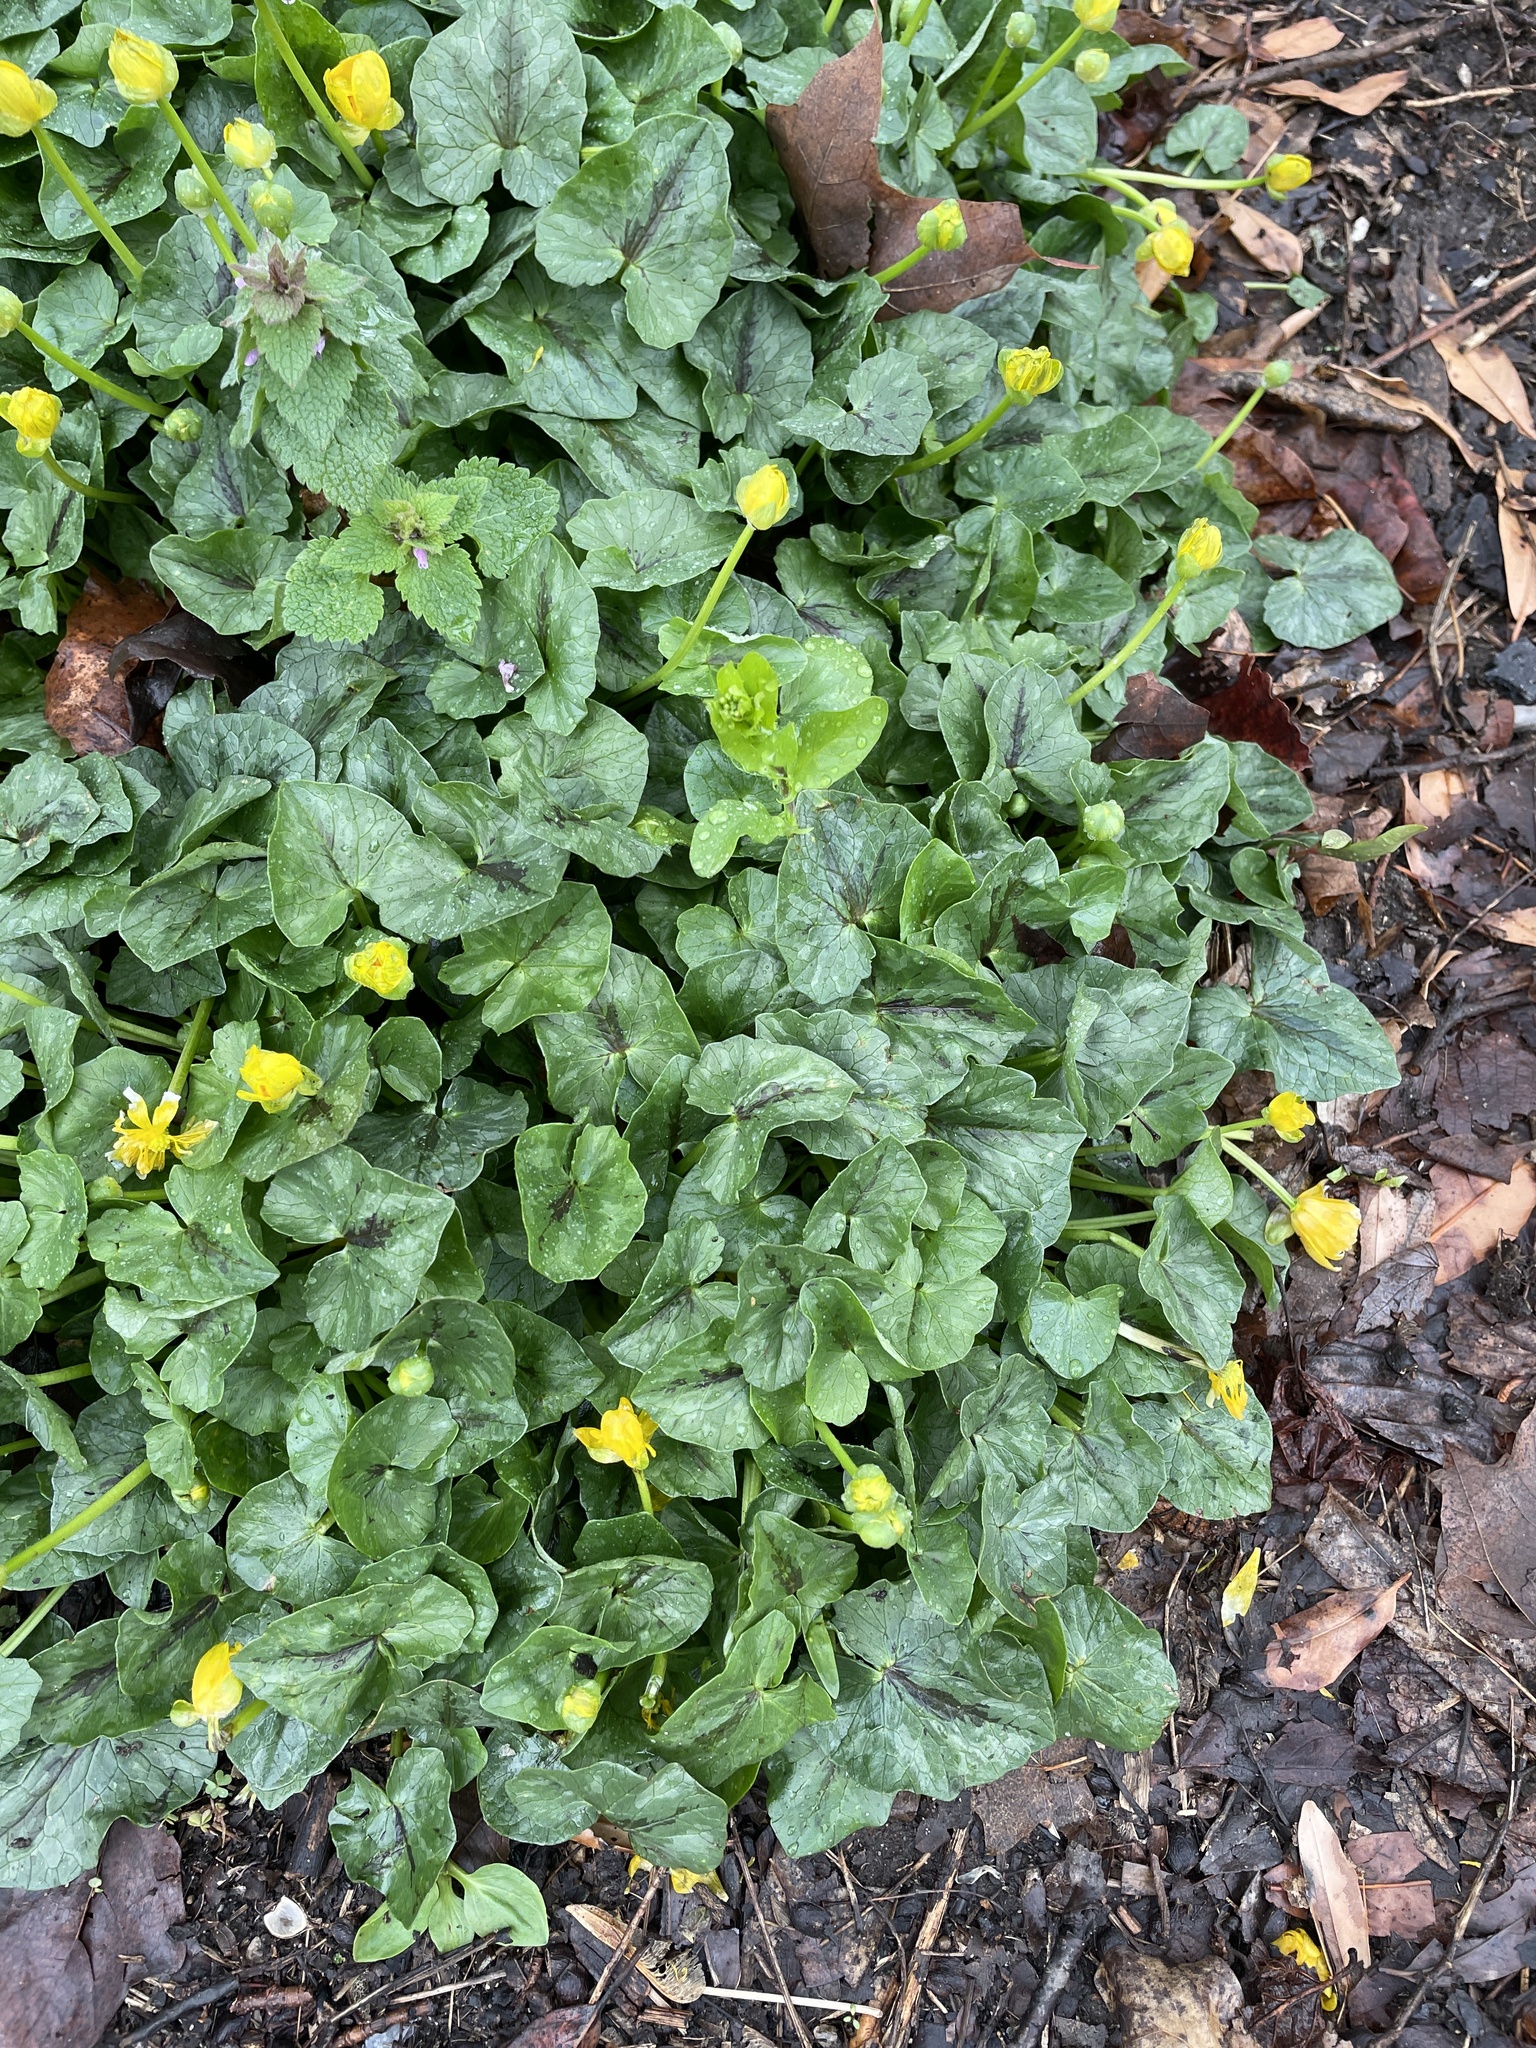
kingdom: Plantae
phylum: Tracheophyta
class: Magnoliopsida
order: Ranunculales
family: Ranunculaceae
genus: Ficaria
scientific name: Ficaria verna
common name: Lesser celandine
